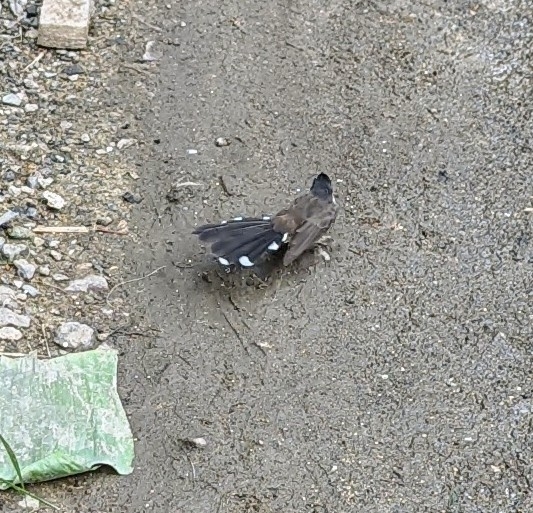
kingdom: Animalia
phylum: Chordata
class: Aves
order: Passeriformes
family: Rhipiduridae
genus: Rhipidura
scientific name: Rhipidura javanica
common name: Pied fantail
